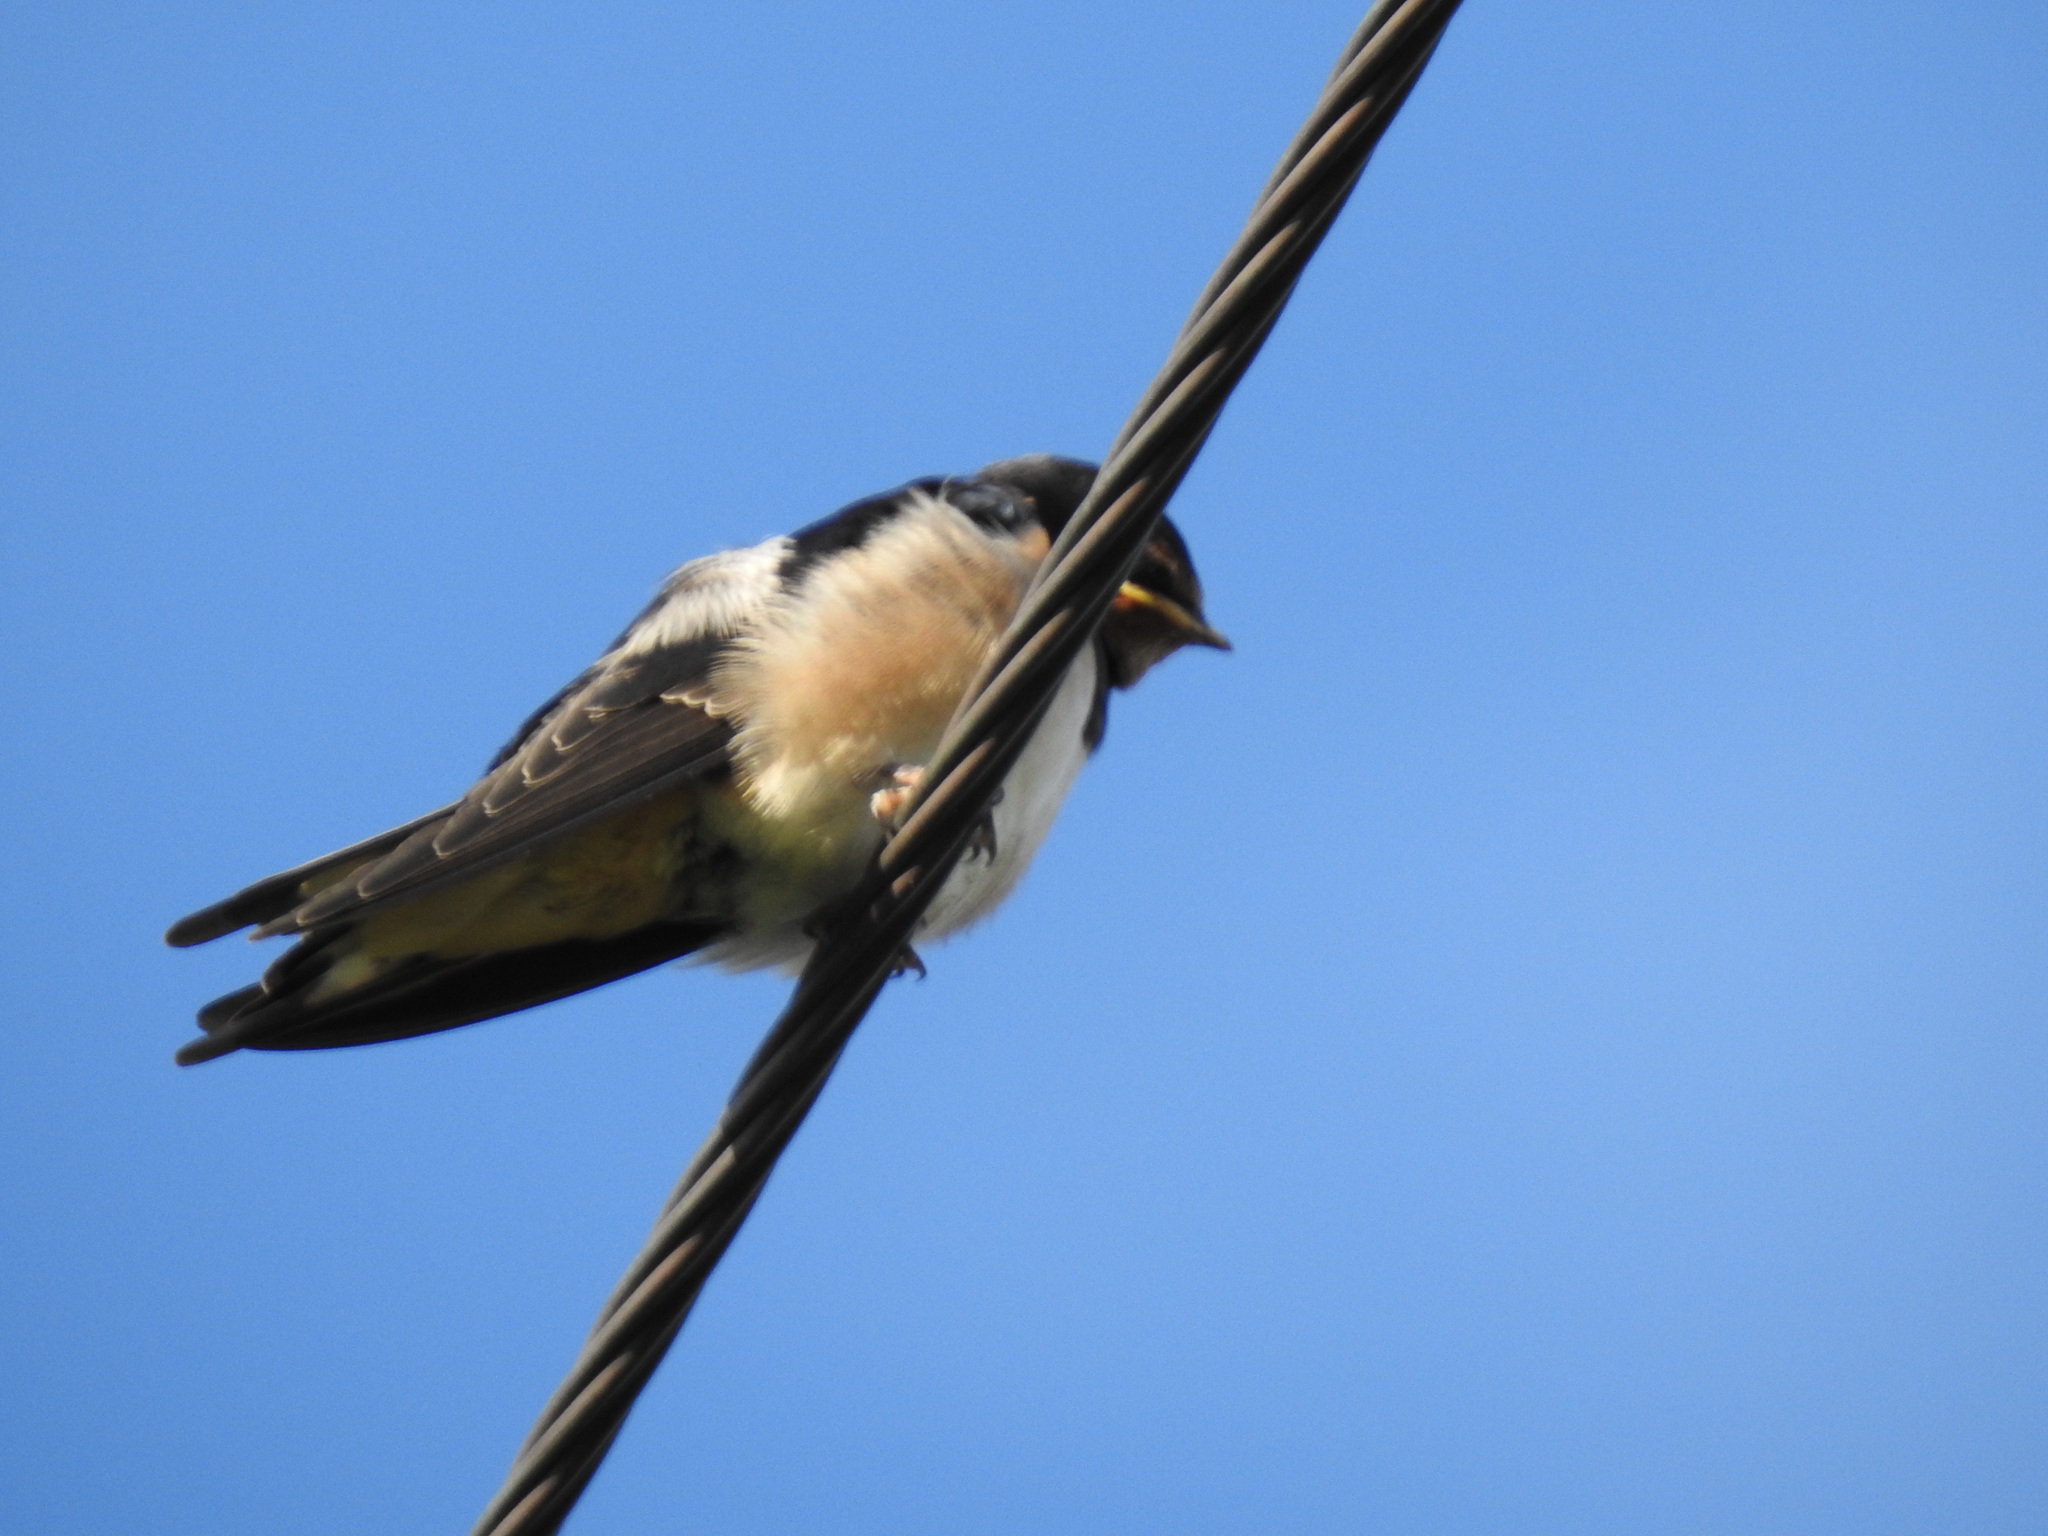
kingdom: Animalia
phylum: Chordata
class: Aves
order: Passeriformes
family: Hirundinidae
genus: Hirundo
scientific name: Hirundo rustica
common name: Barn swallow
